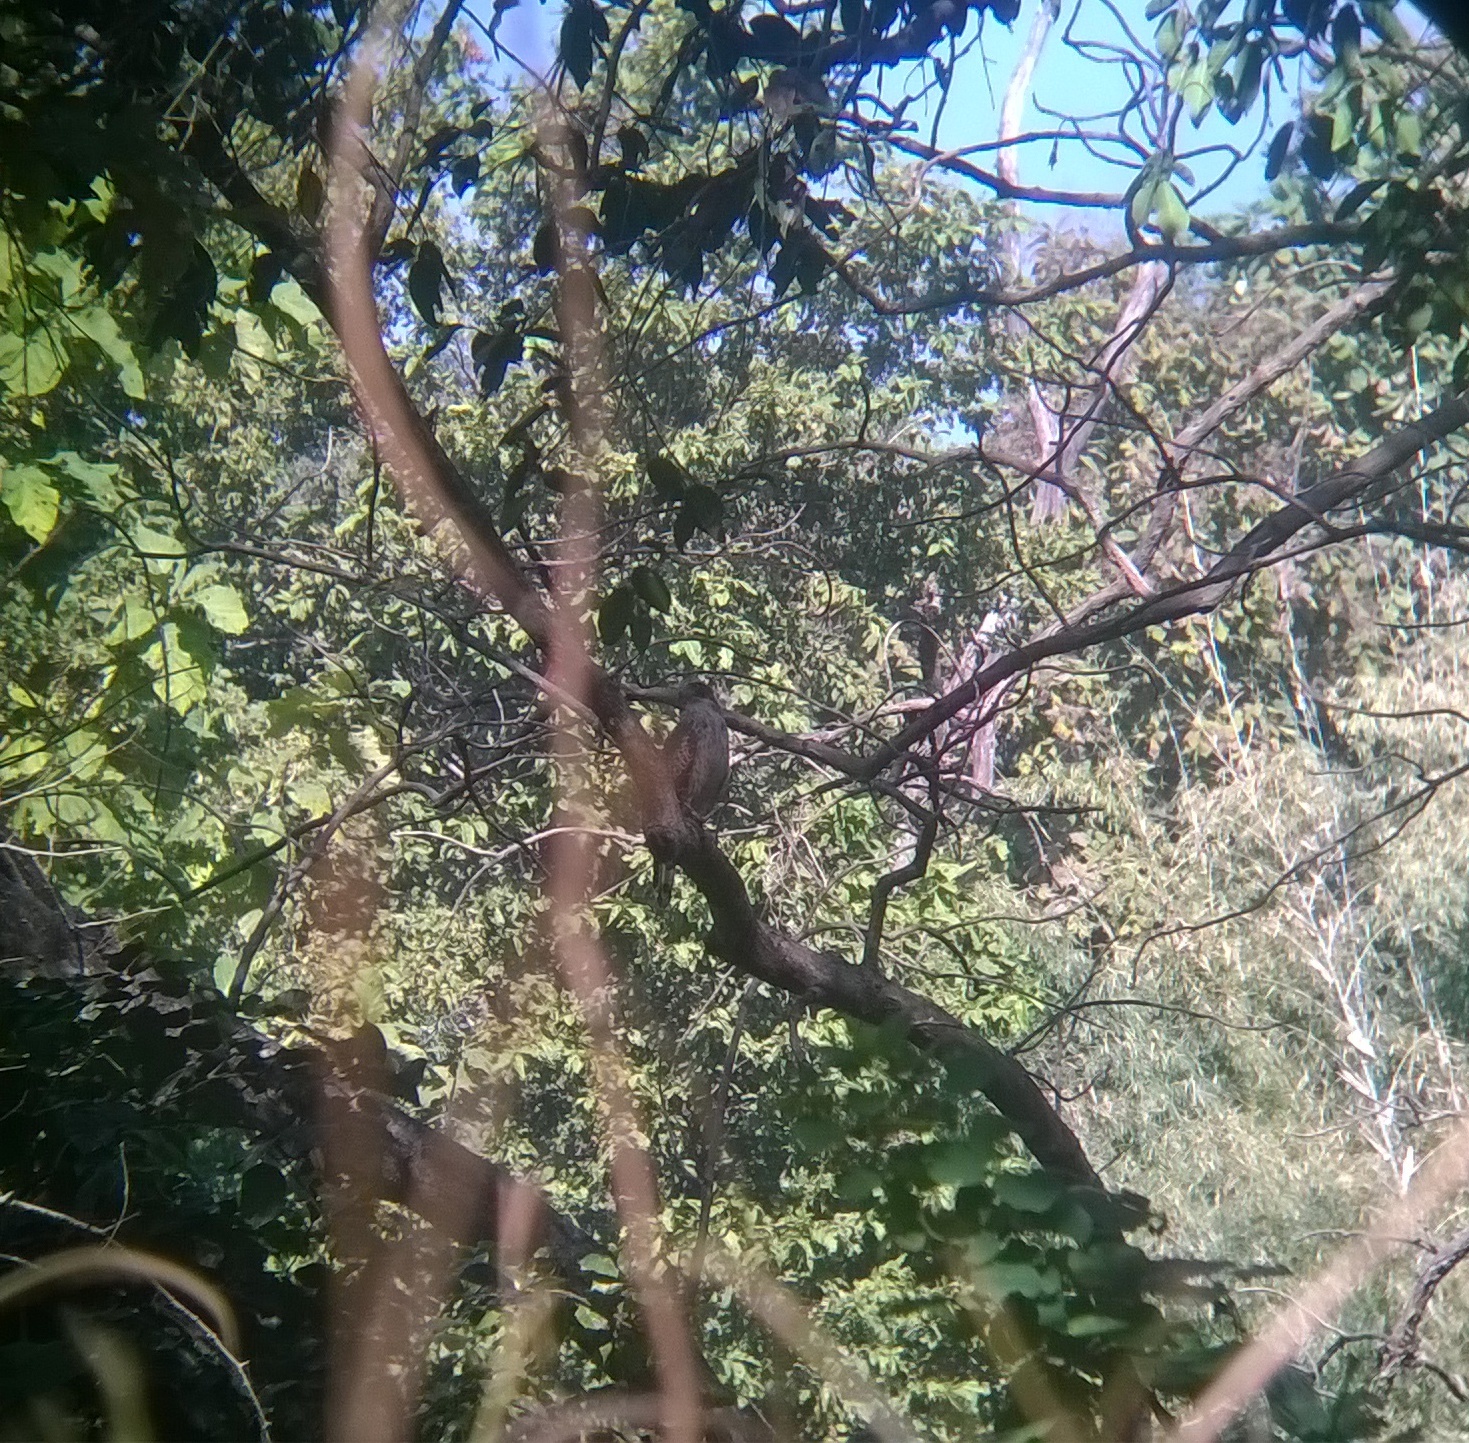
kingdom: Animalia
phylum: Chordata
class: Aves
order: Accipitriformes
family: Accipitridae
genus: Spilornis
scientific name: Spilornis cheela
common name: Crested serpent eagle
